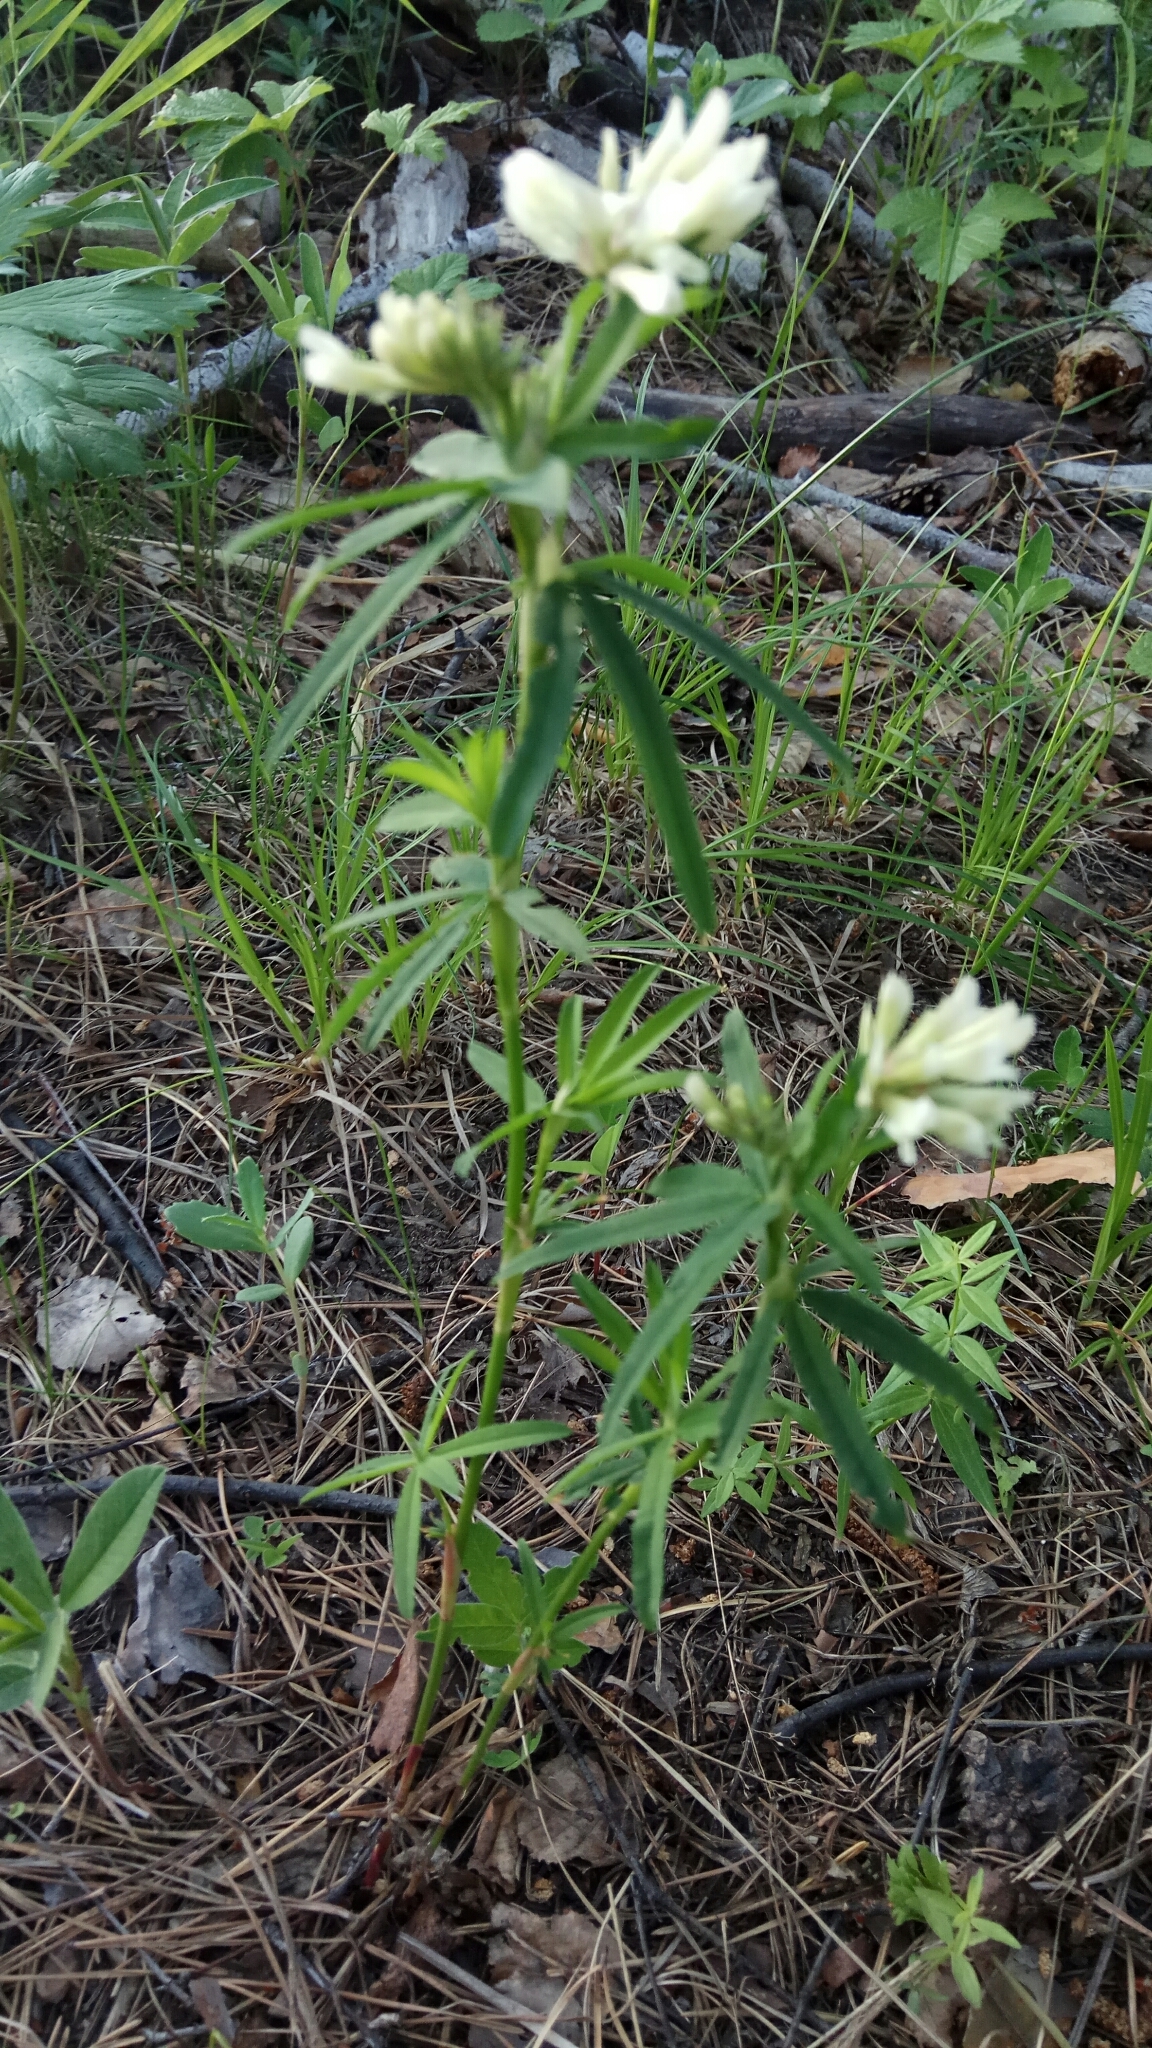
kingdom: Plantae
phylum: Tracheophyta
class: Magnoliopsida
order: Fabales
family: Fabaceae
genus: Trifolium
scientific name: Trifolium lupinaster
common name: Lupine clover
